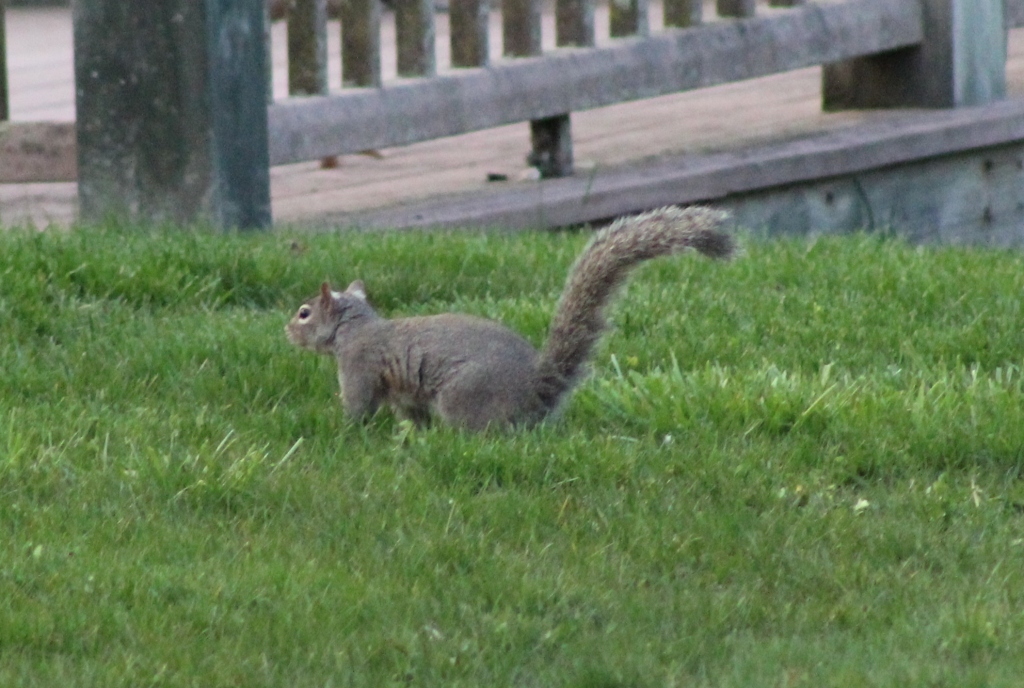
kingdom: Animalia
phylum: Chordata
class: Mammalia
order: Rodentia
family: Sciuridae
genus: Sciurus
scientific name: Sciurus carolinensis
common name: Eastern gray squirrel
